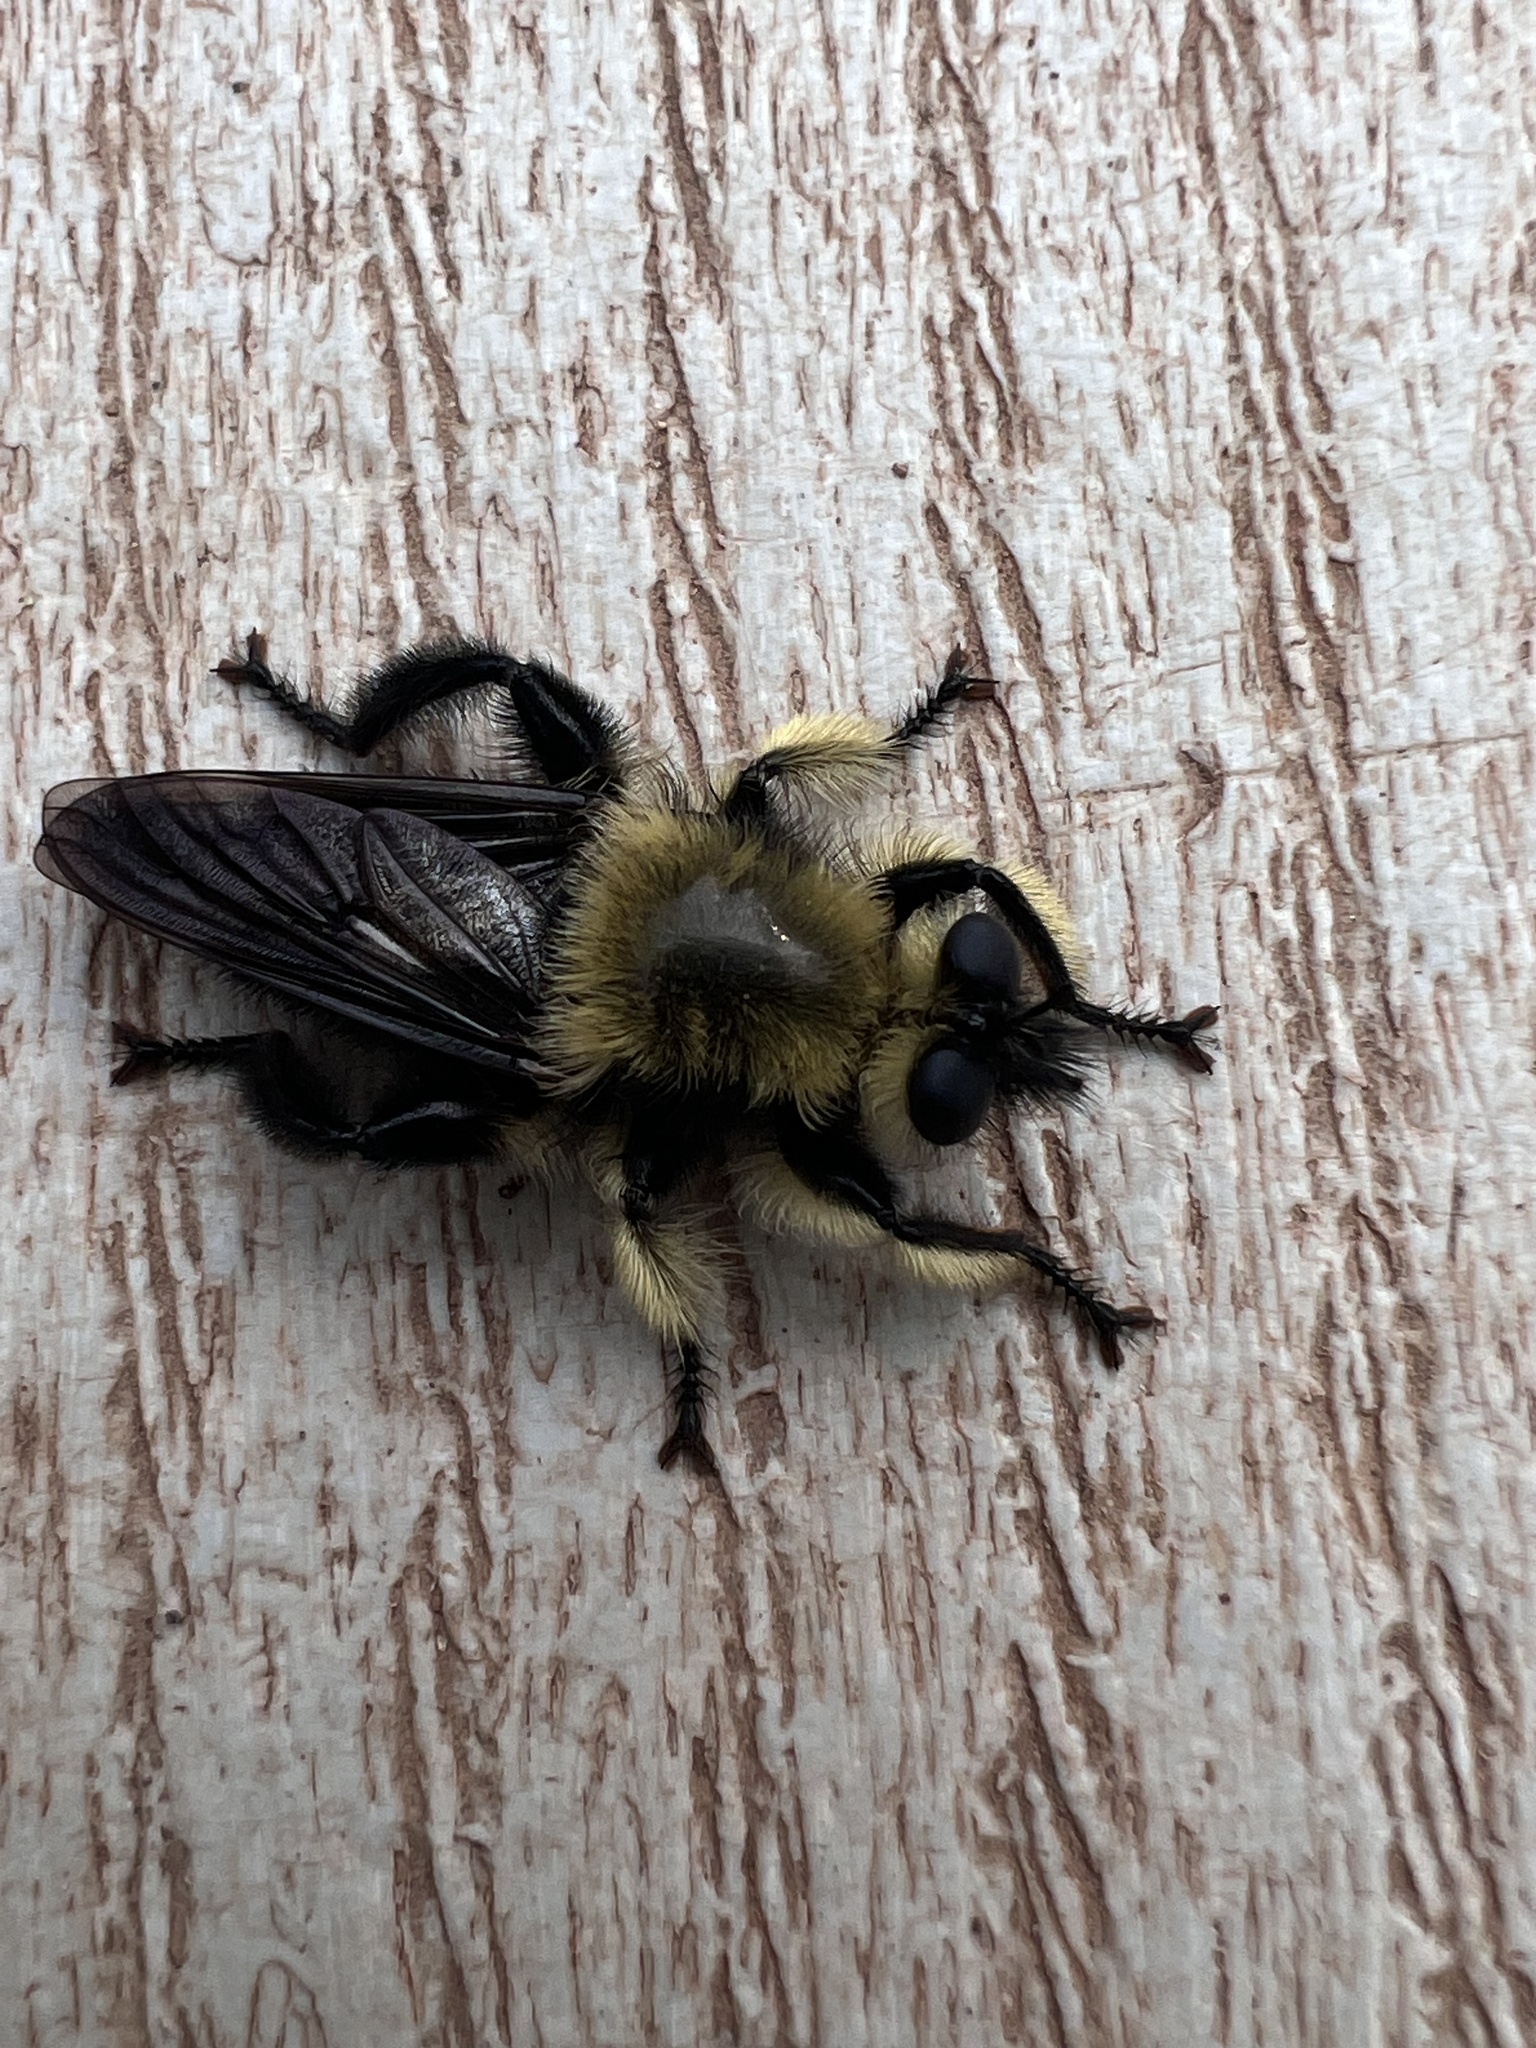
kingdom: Animalia
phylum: Arthropoda
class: Insecta
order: Diptera
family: Asilidae
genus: Laphria
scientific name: Laphria affinis
